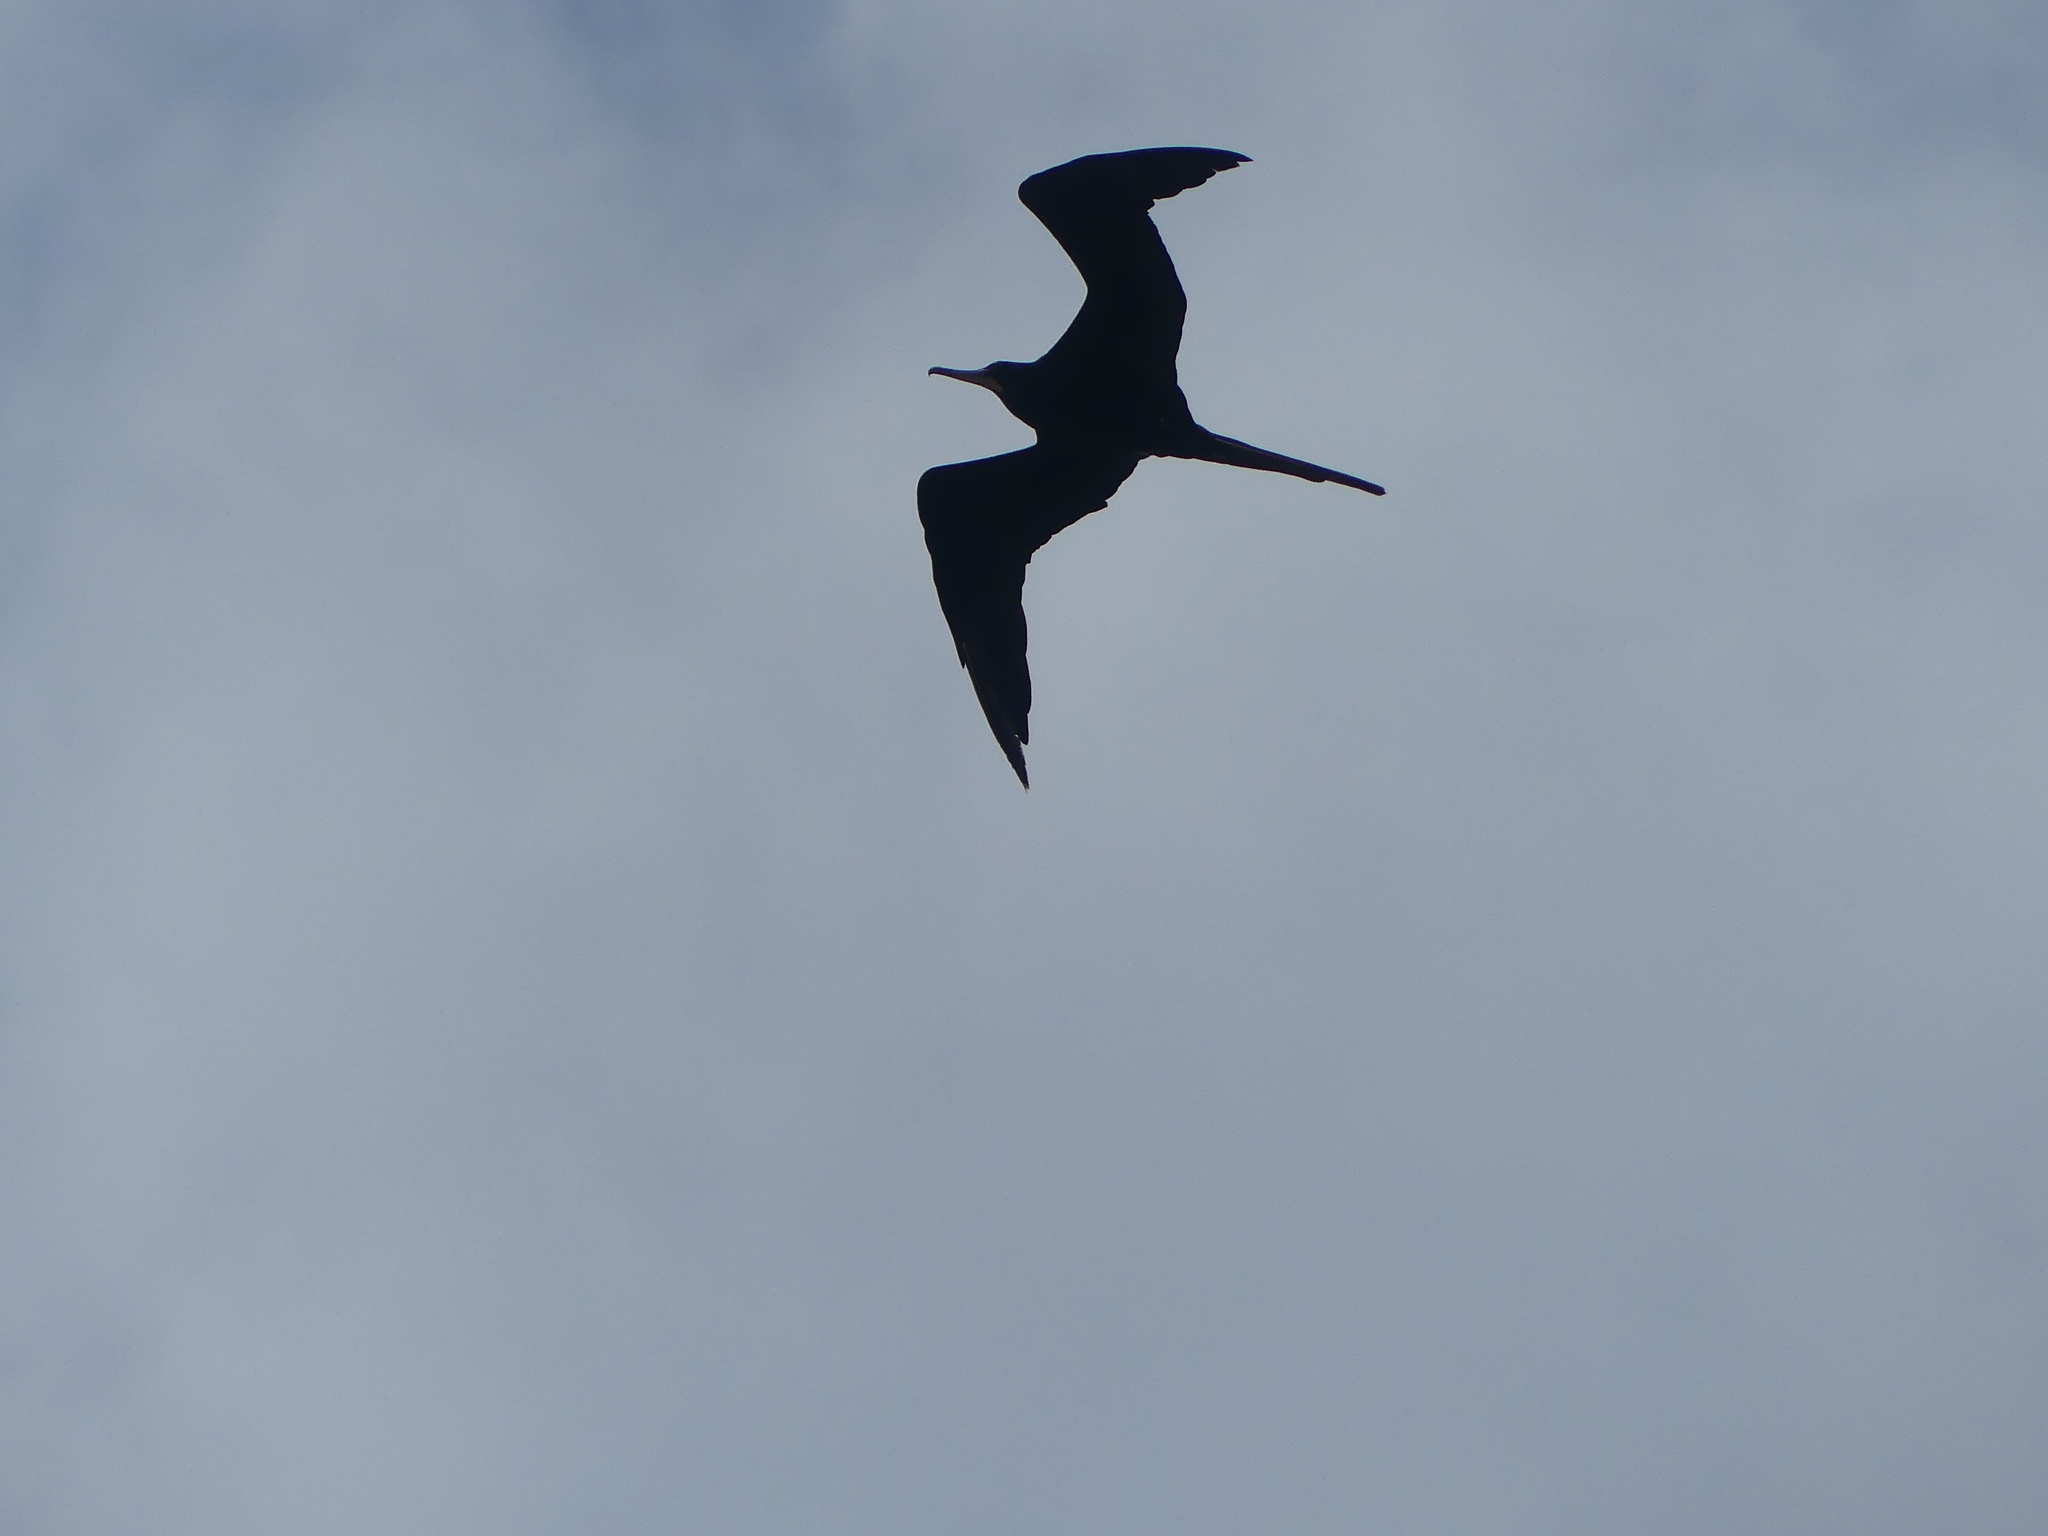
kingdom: Animalia
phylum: Chordata
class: Aves
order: Suliformes
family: Fregatidae
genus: Fregata
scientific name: Fregata magnificens
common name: Magnificent frigatebird
